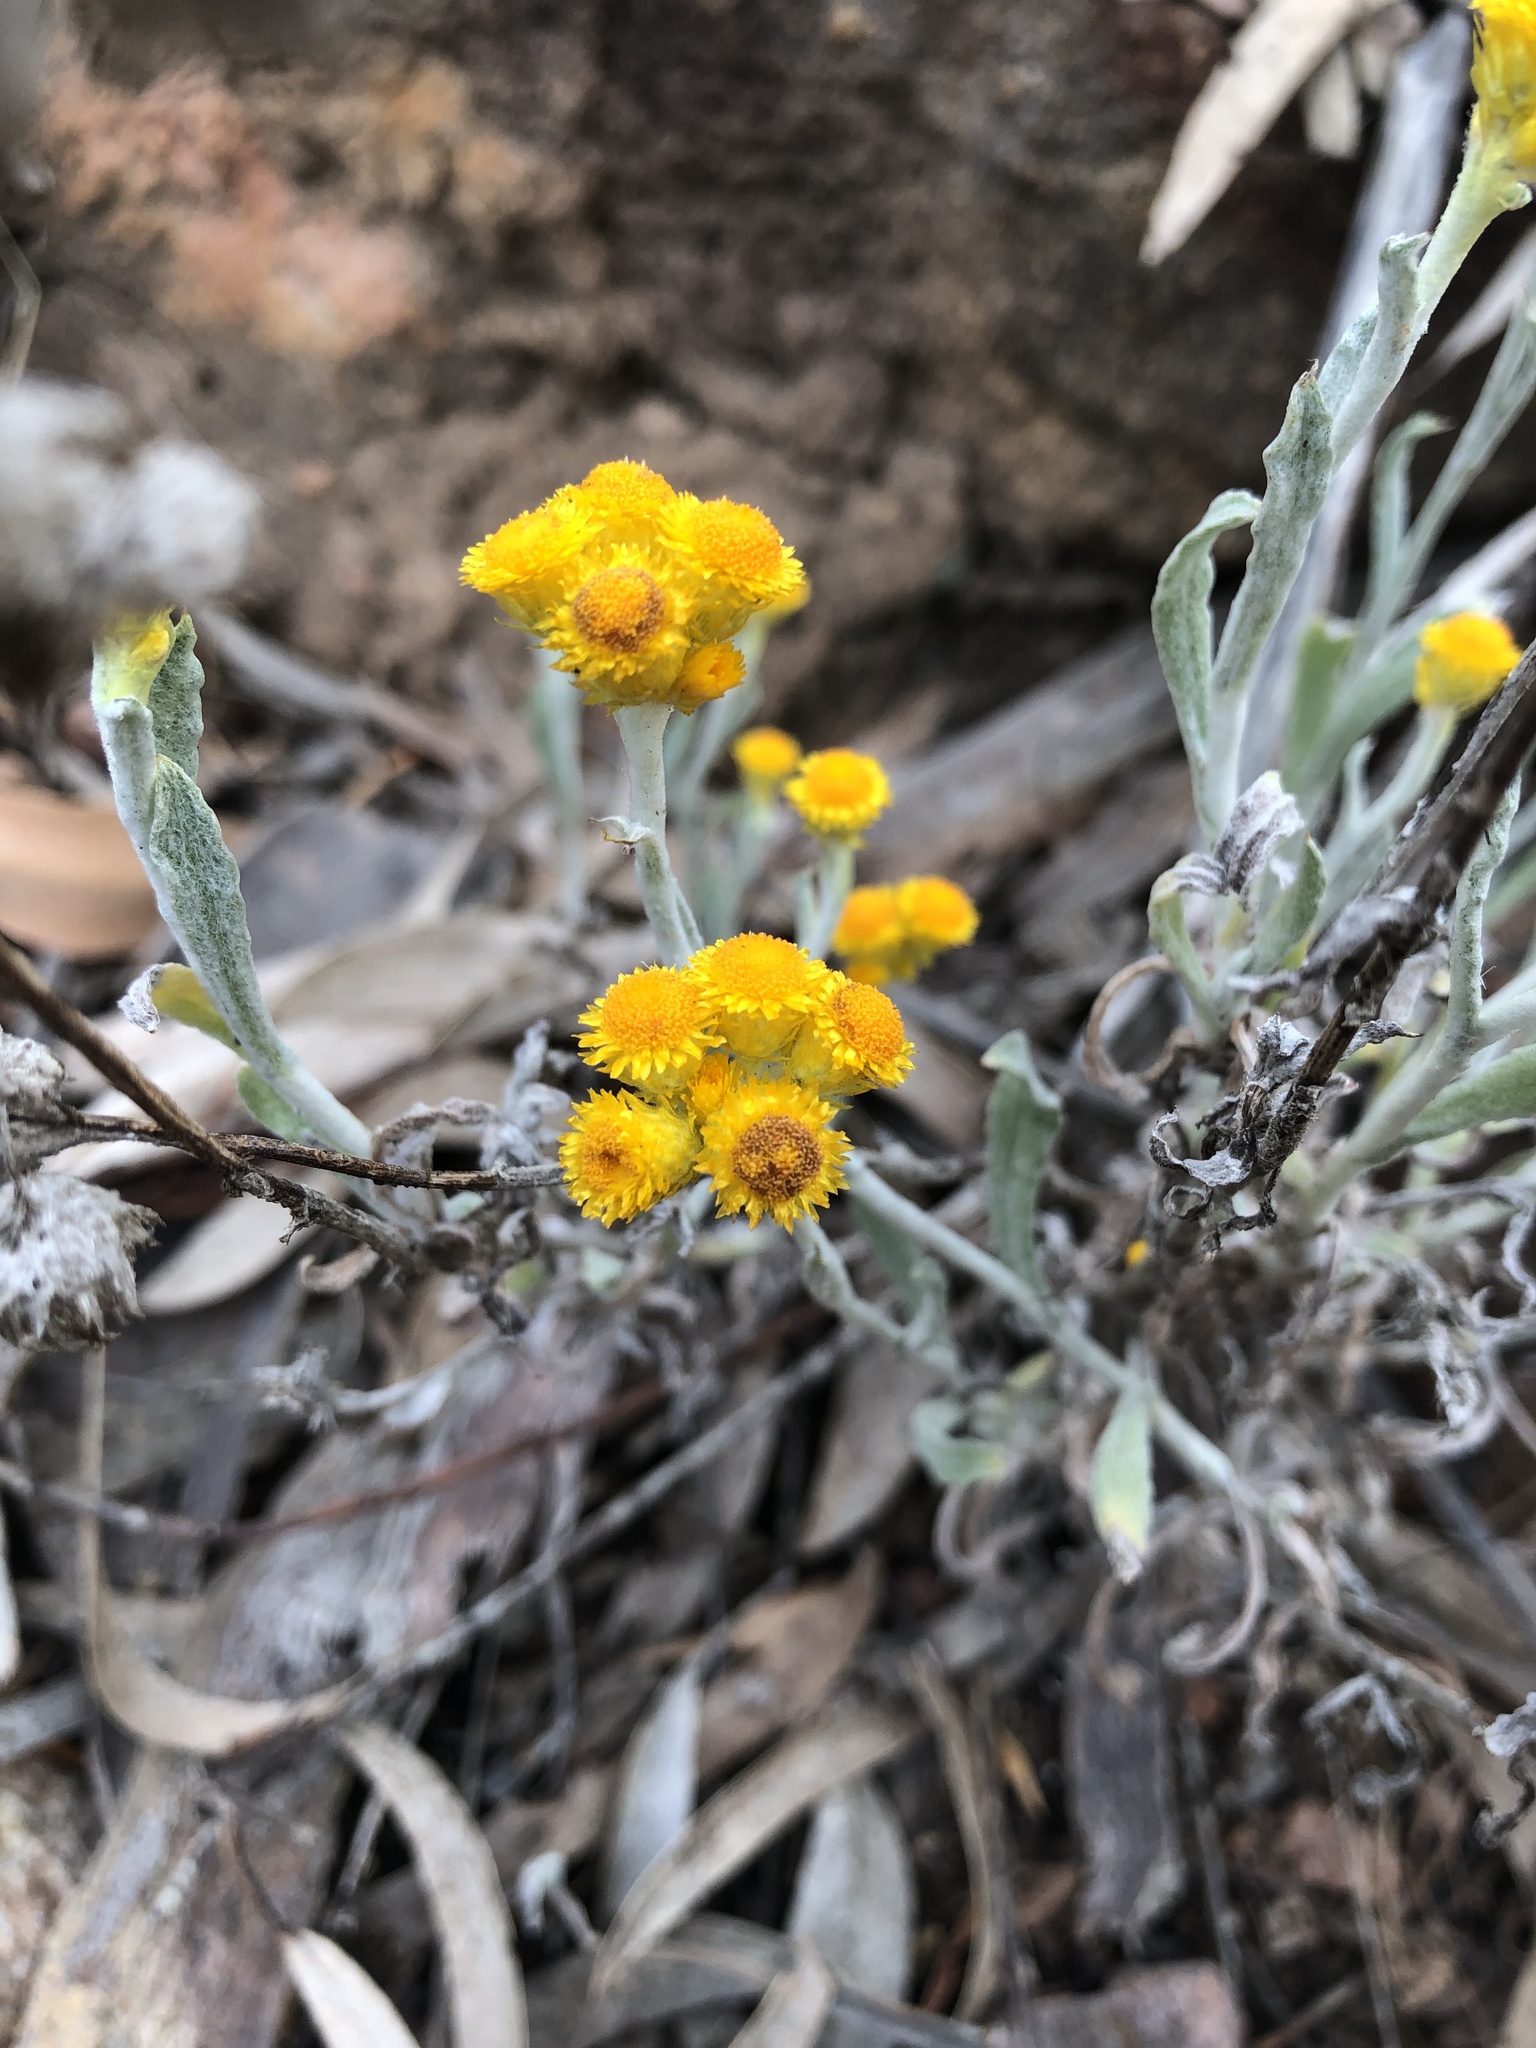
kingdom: Plantae
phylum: Tracheophyta
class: Magnoliopsida
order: Asterales
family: Asteraceae
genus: Chrysocephalum
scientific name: Chrysocephalum apiculatum
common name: Common everlasting
